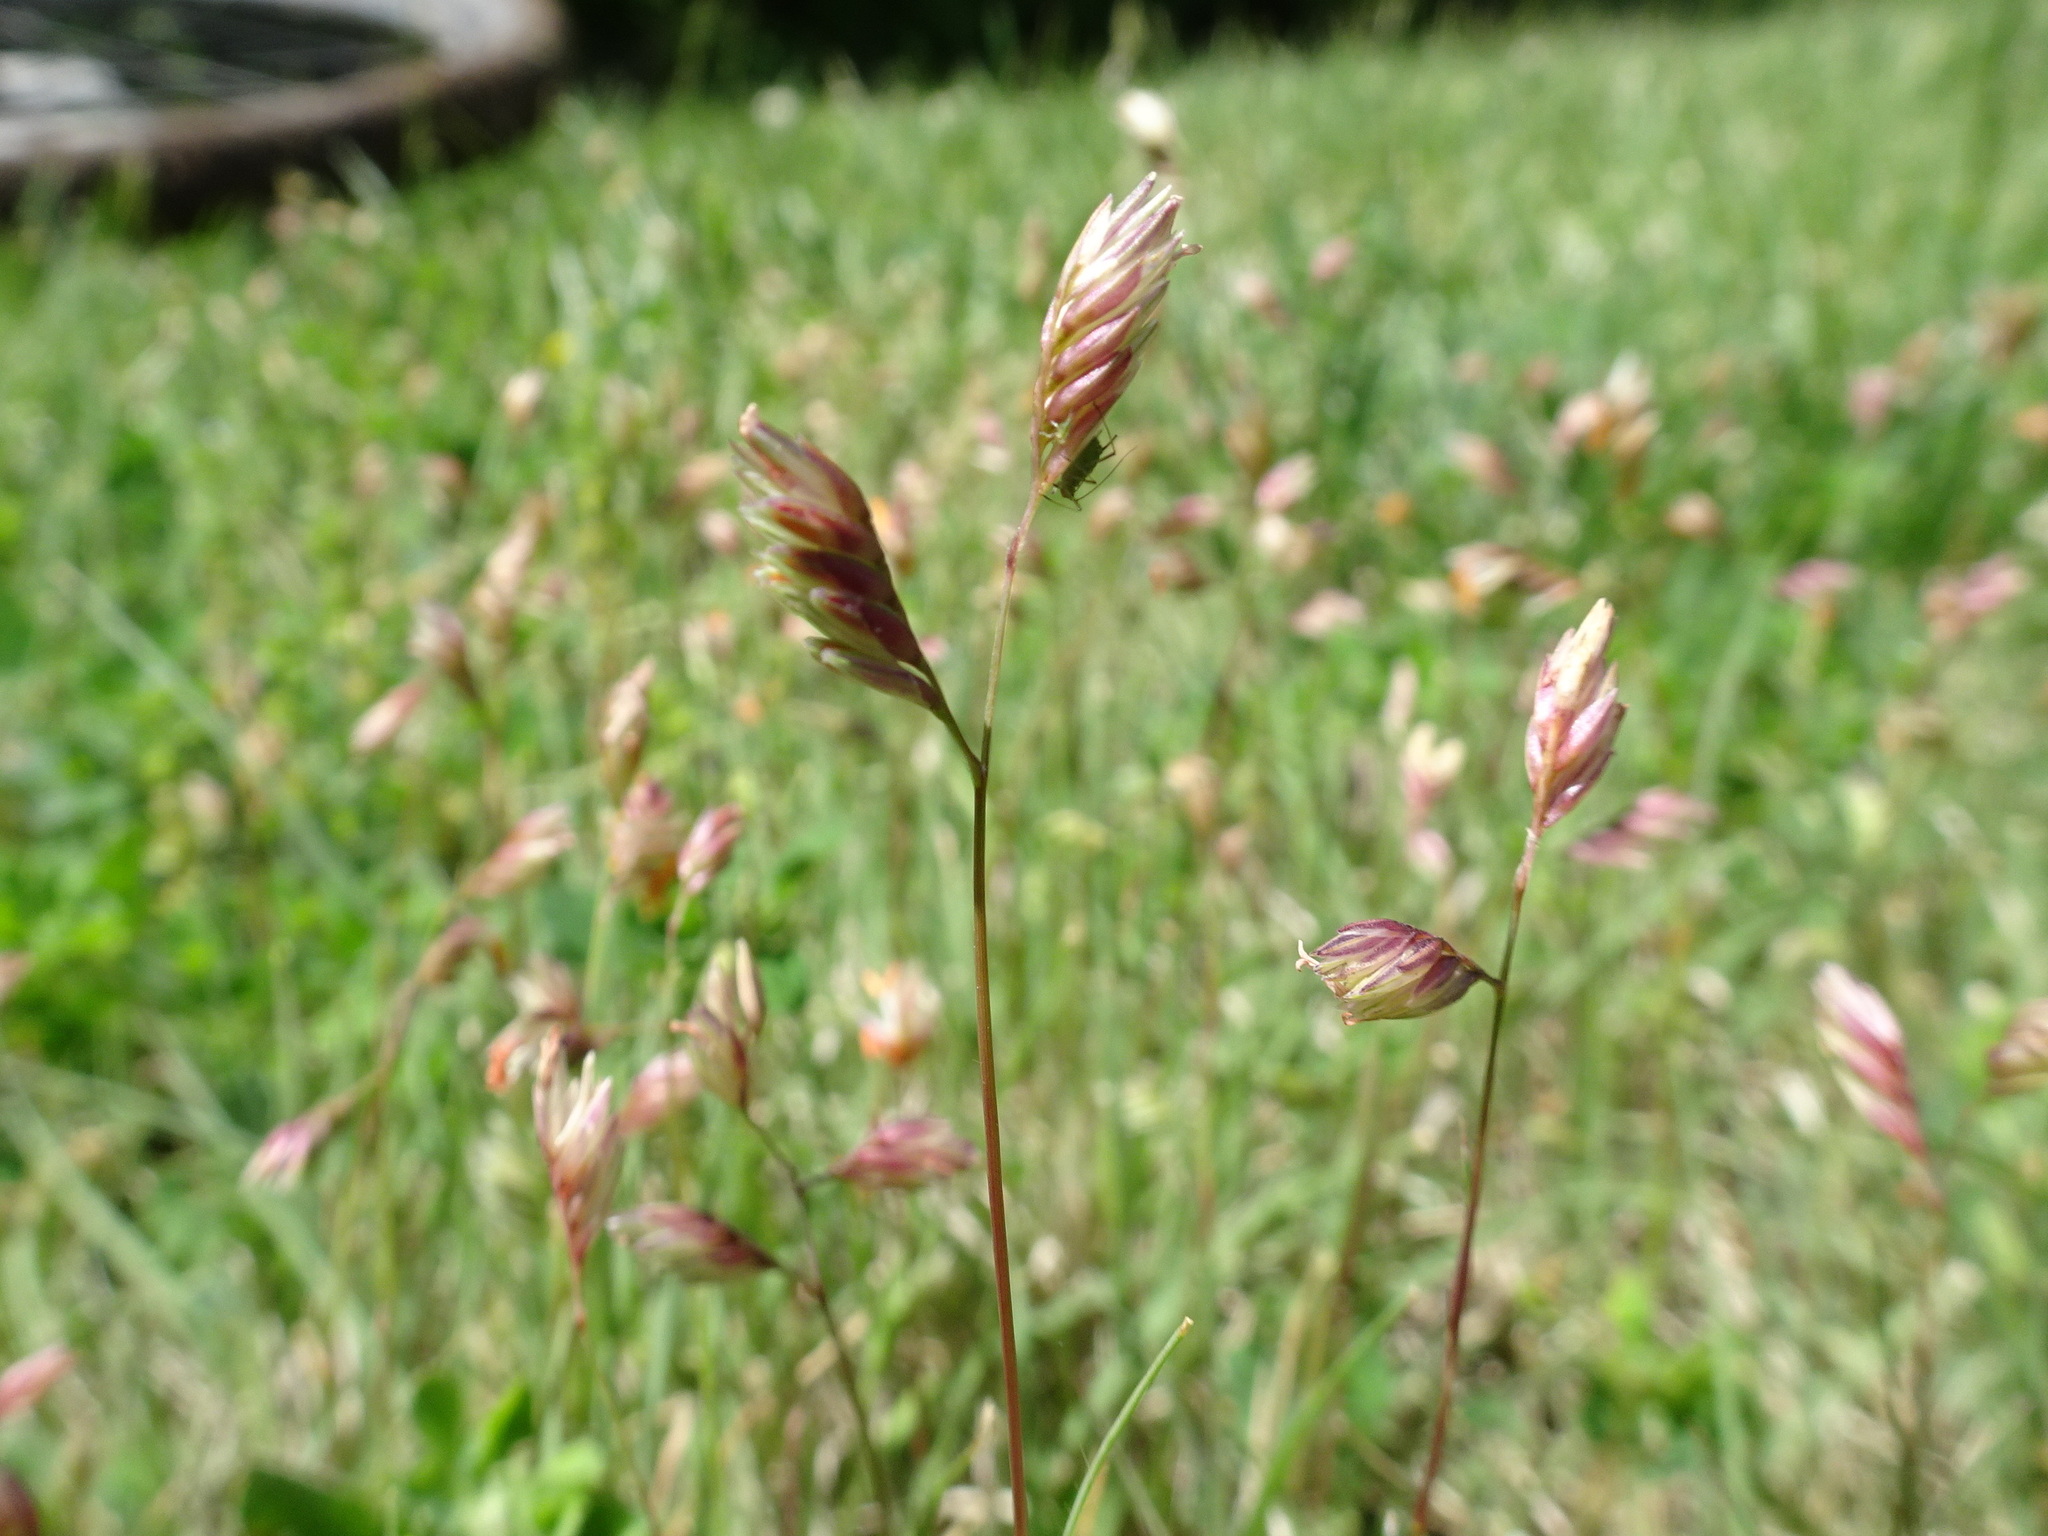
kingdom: Plantae
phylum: Tracheophyta
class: Liliopsida
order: Poales
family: Poaceae
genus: Bouteloua
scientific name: Bouteloua dactyloides
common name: Buffalo grass
